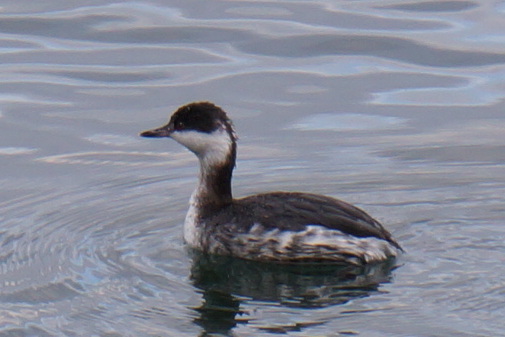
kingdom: Animalia
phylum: Chordata
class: Aves
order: Podicipediformes
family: Podicipedidae
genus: Podiceps
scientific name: Podiceps auritus
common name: Horned grebe
